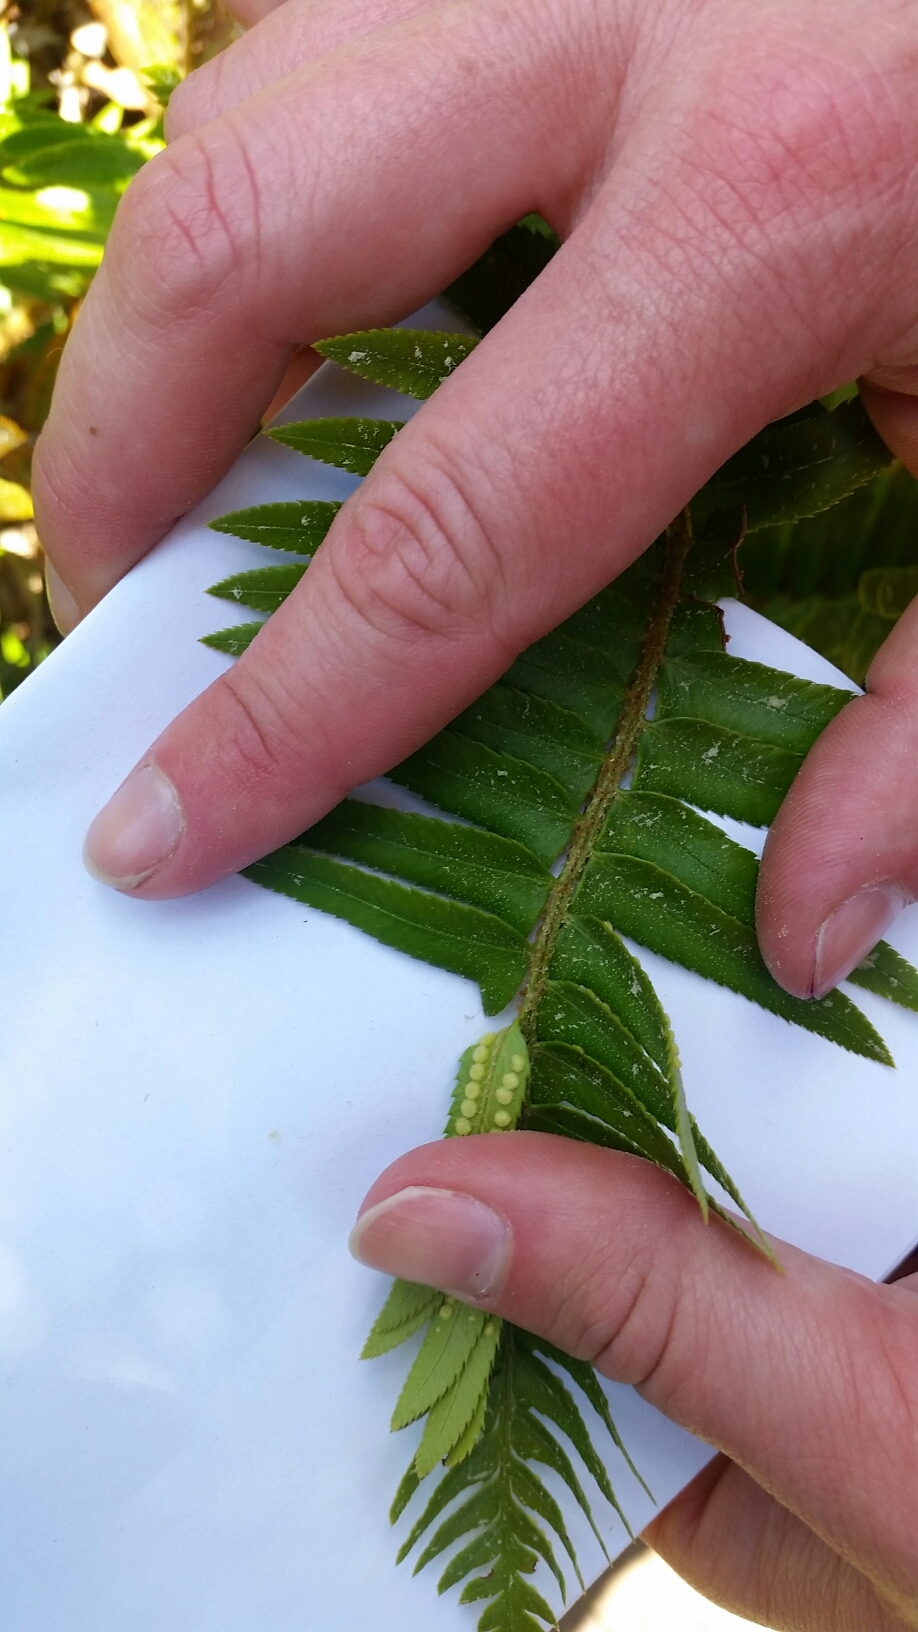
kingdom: Plantae
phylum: Tracheophyta
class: Polypodiopsida
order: Polypodiales
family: Dryopteridaceae
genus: Polystichum
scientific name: Polystichum munitum
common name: Western sword-fern
